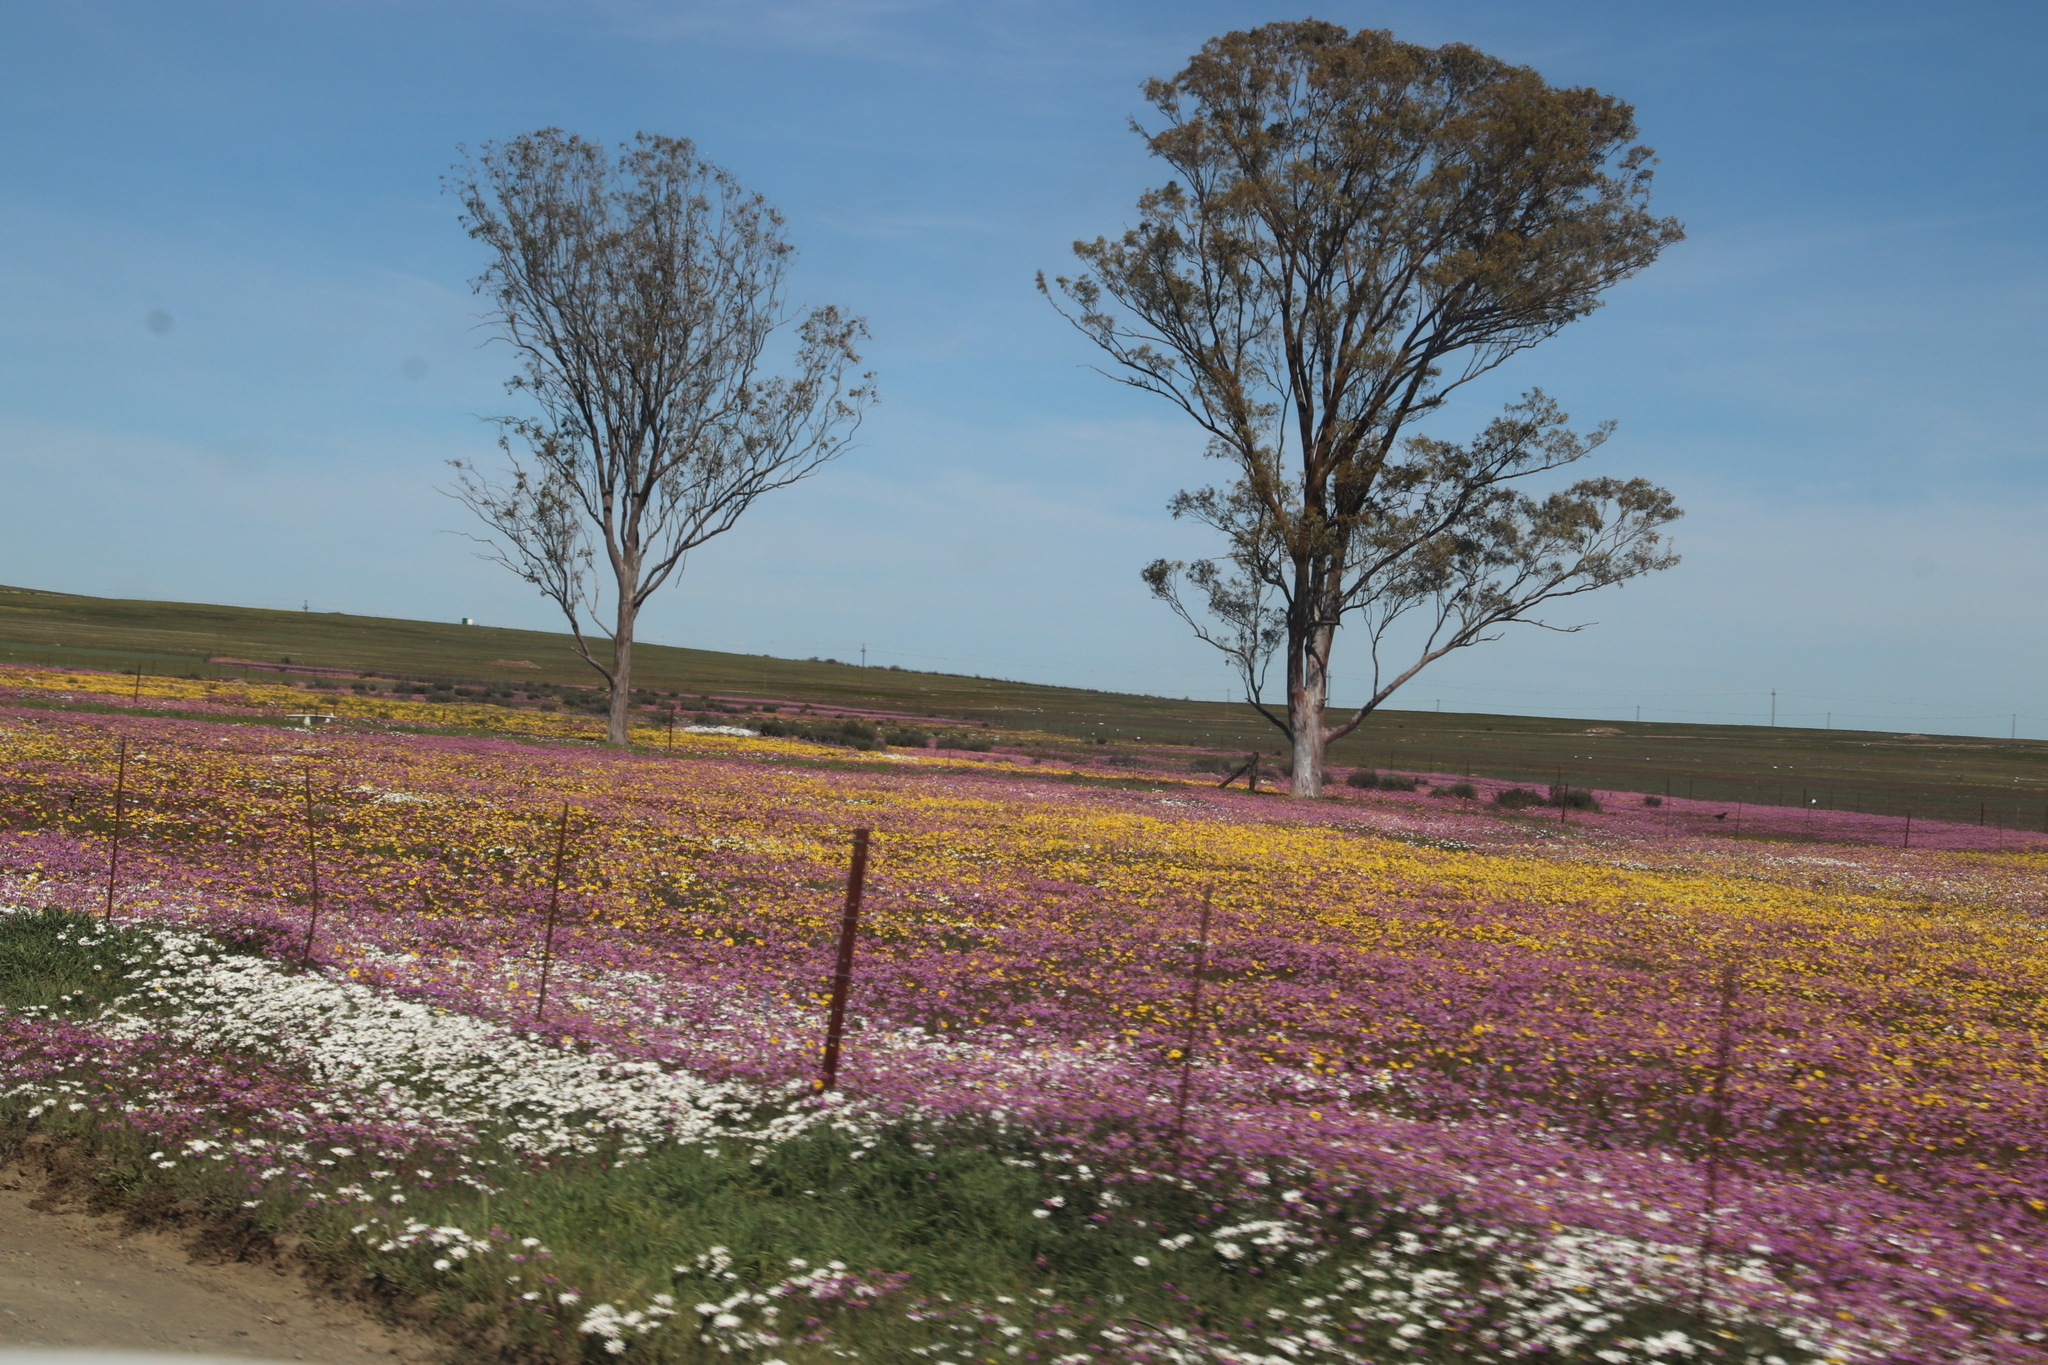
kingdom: Plantae
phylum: Tracheophyta
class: Magnoliopsida
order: Asterales
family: Asteraceae
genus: Senecio
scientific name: Senecio abruptus
